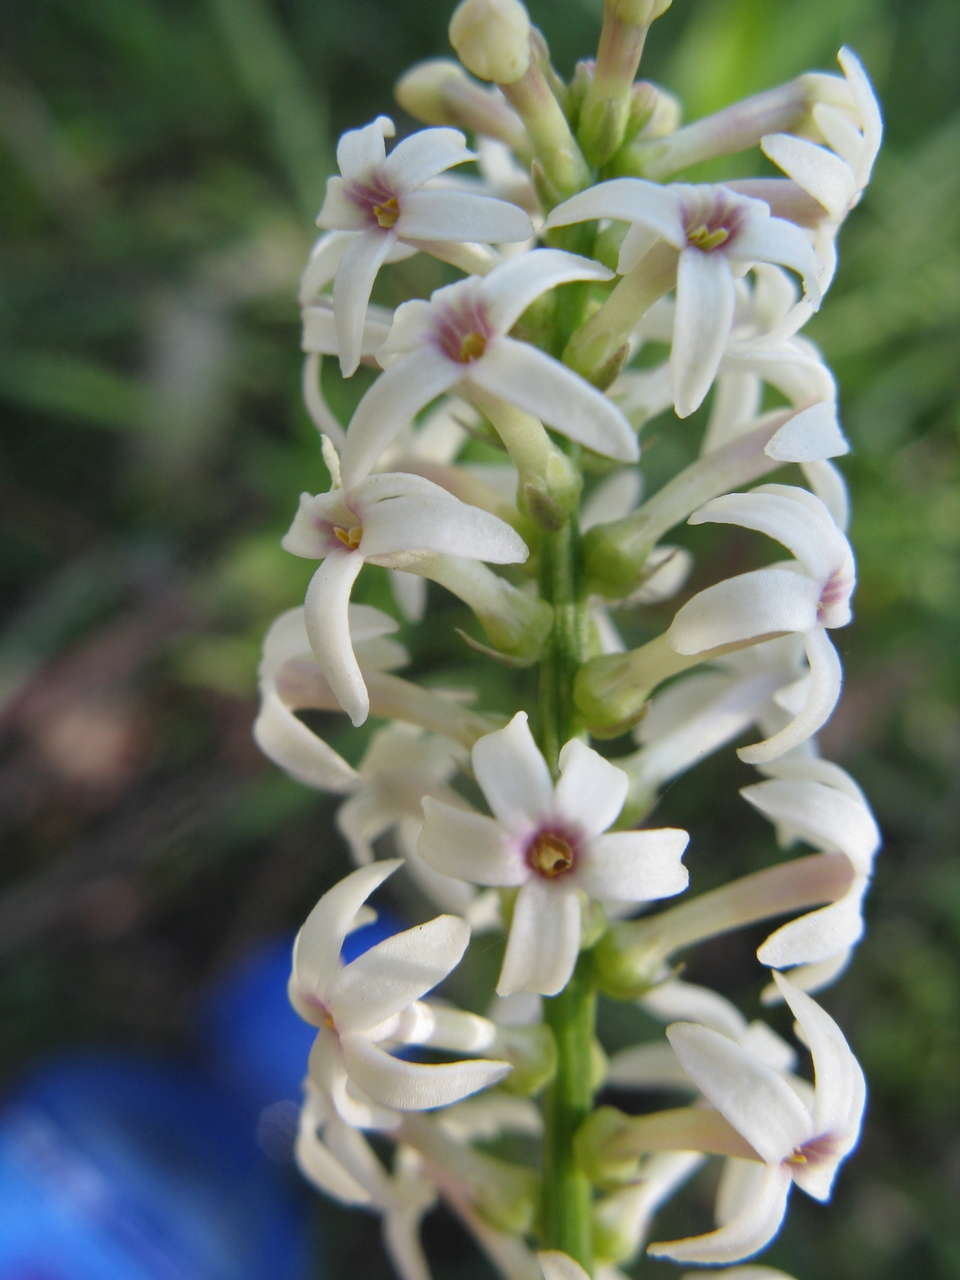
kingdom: Plantae
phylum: Tracheophyta
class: Magnoliopsida
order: Celastrales
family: Celastraceae
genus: Stackhousia
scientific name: Stackhousia monogyna
